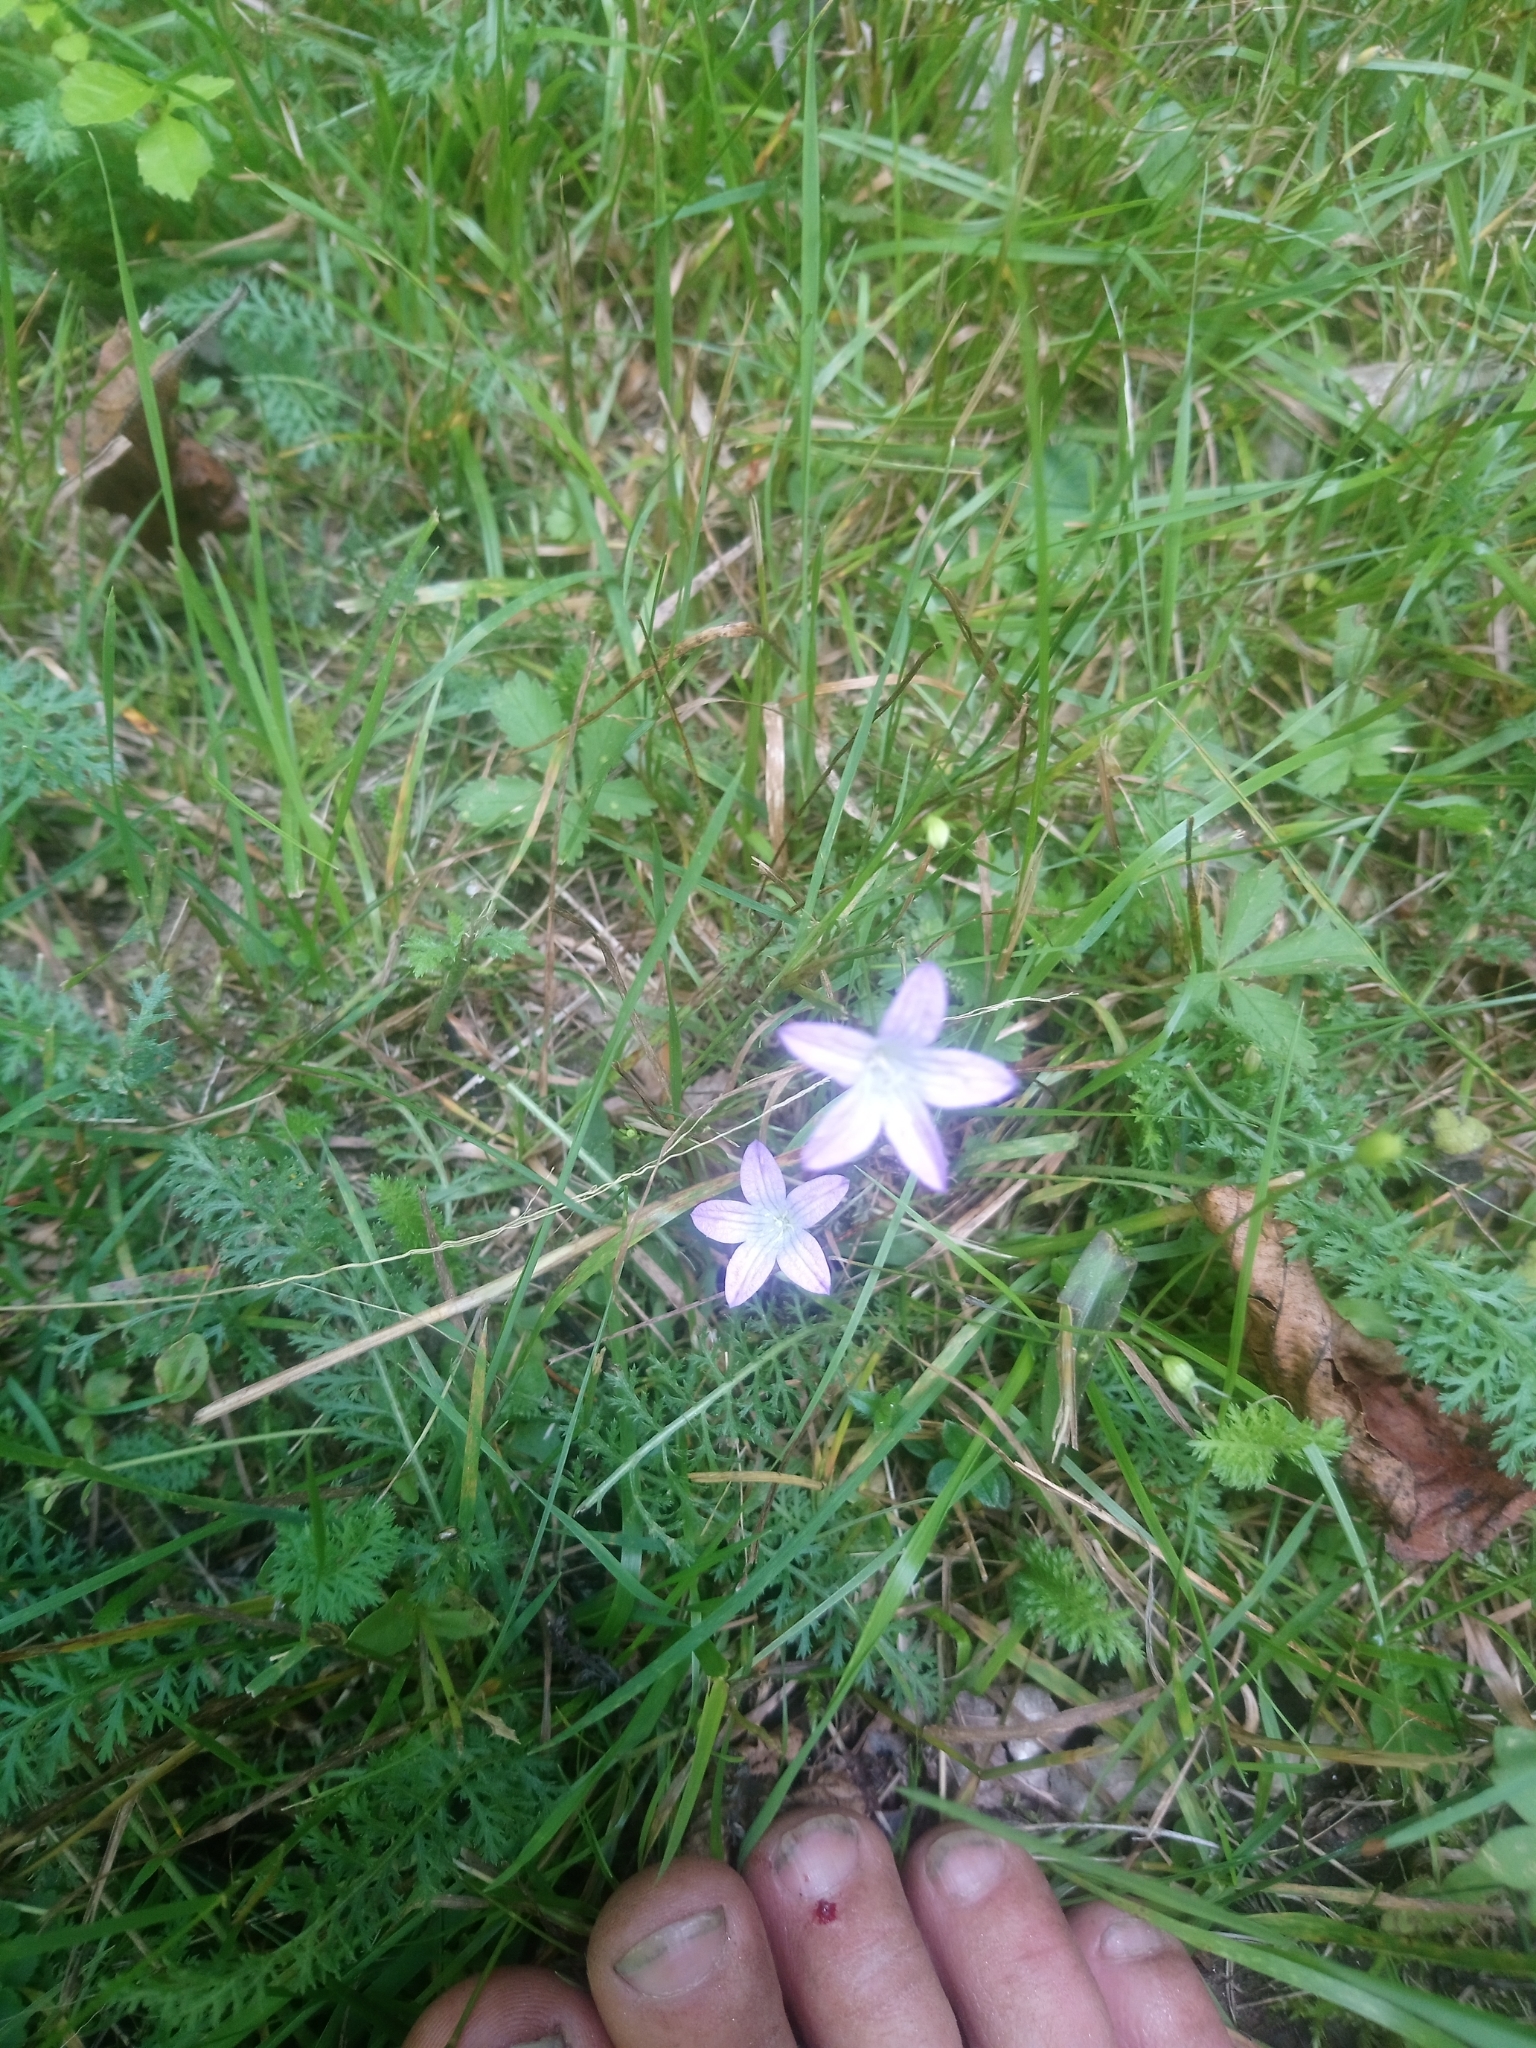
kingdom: Plantae
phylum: Tracheophyta
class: Magnoliopsida
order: Asterales
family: Campanulaceae
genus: Campanula
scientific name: Campanula patula
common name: Spreading bellflower
